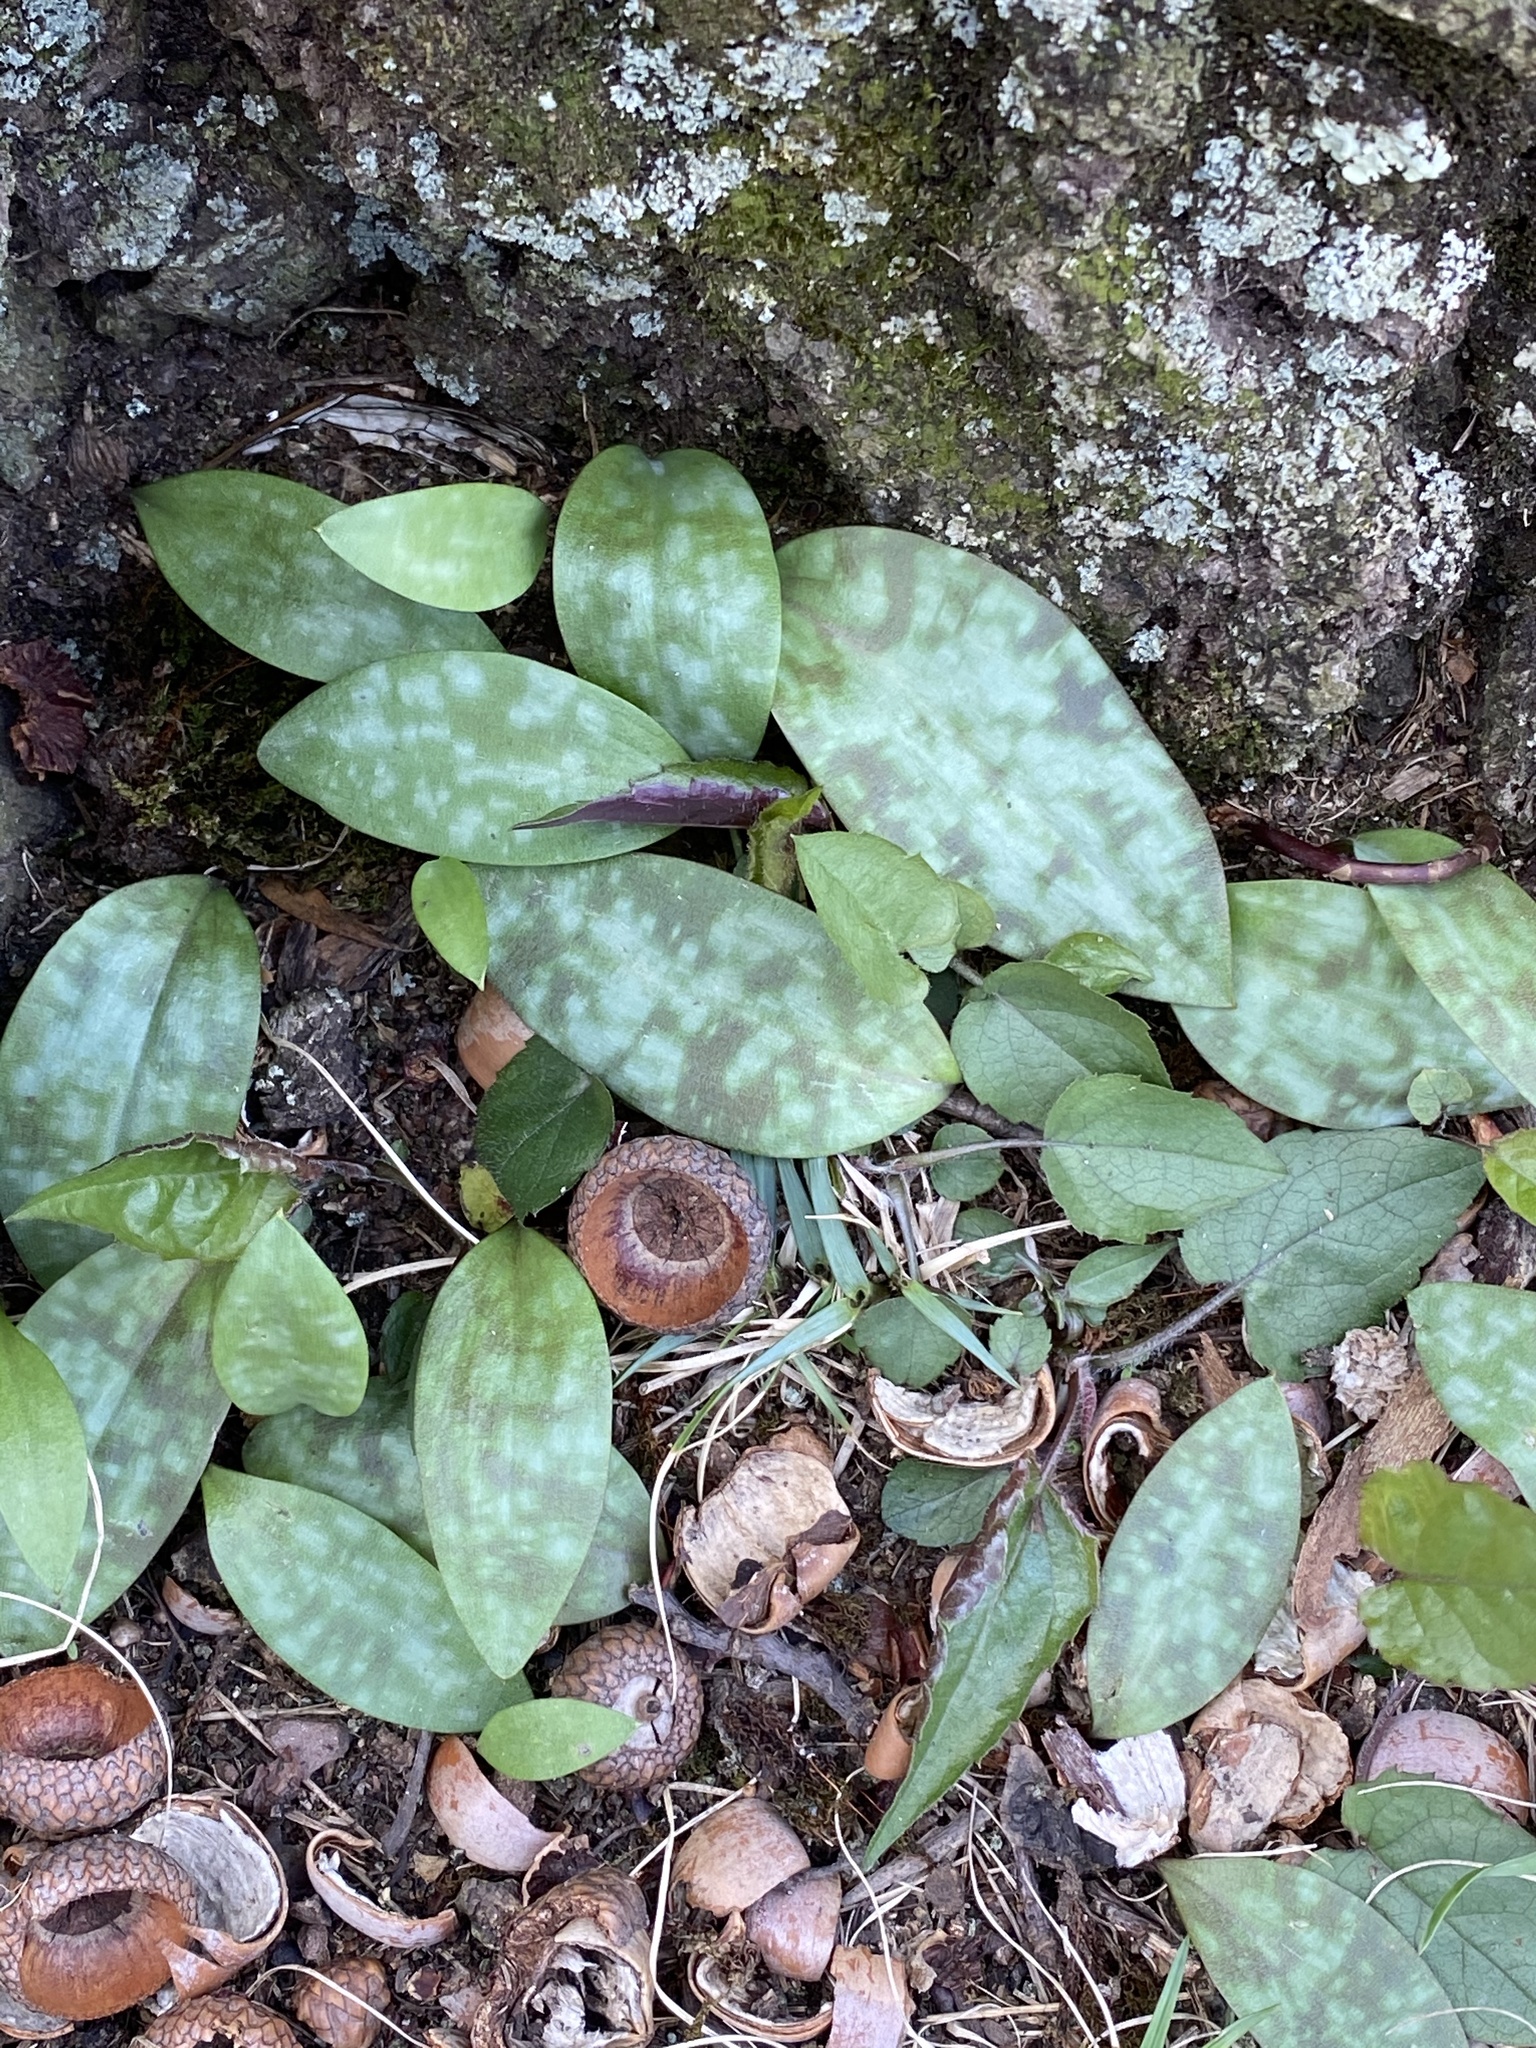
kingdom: Plantae
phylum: Tracheophyta
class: Liliopsida
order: Liliales
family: Liliaceae
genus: Erythronium
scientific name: Erythronium americanum
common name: Yellow adder's-tongue
